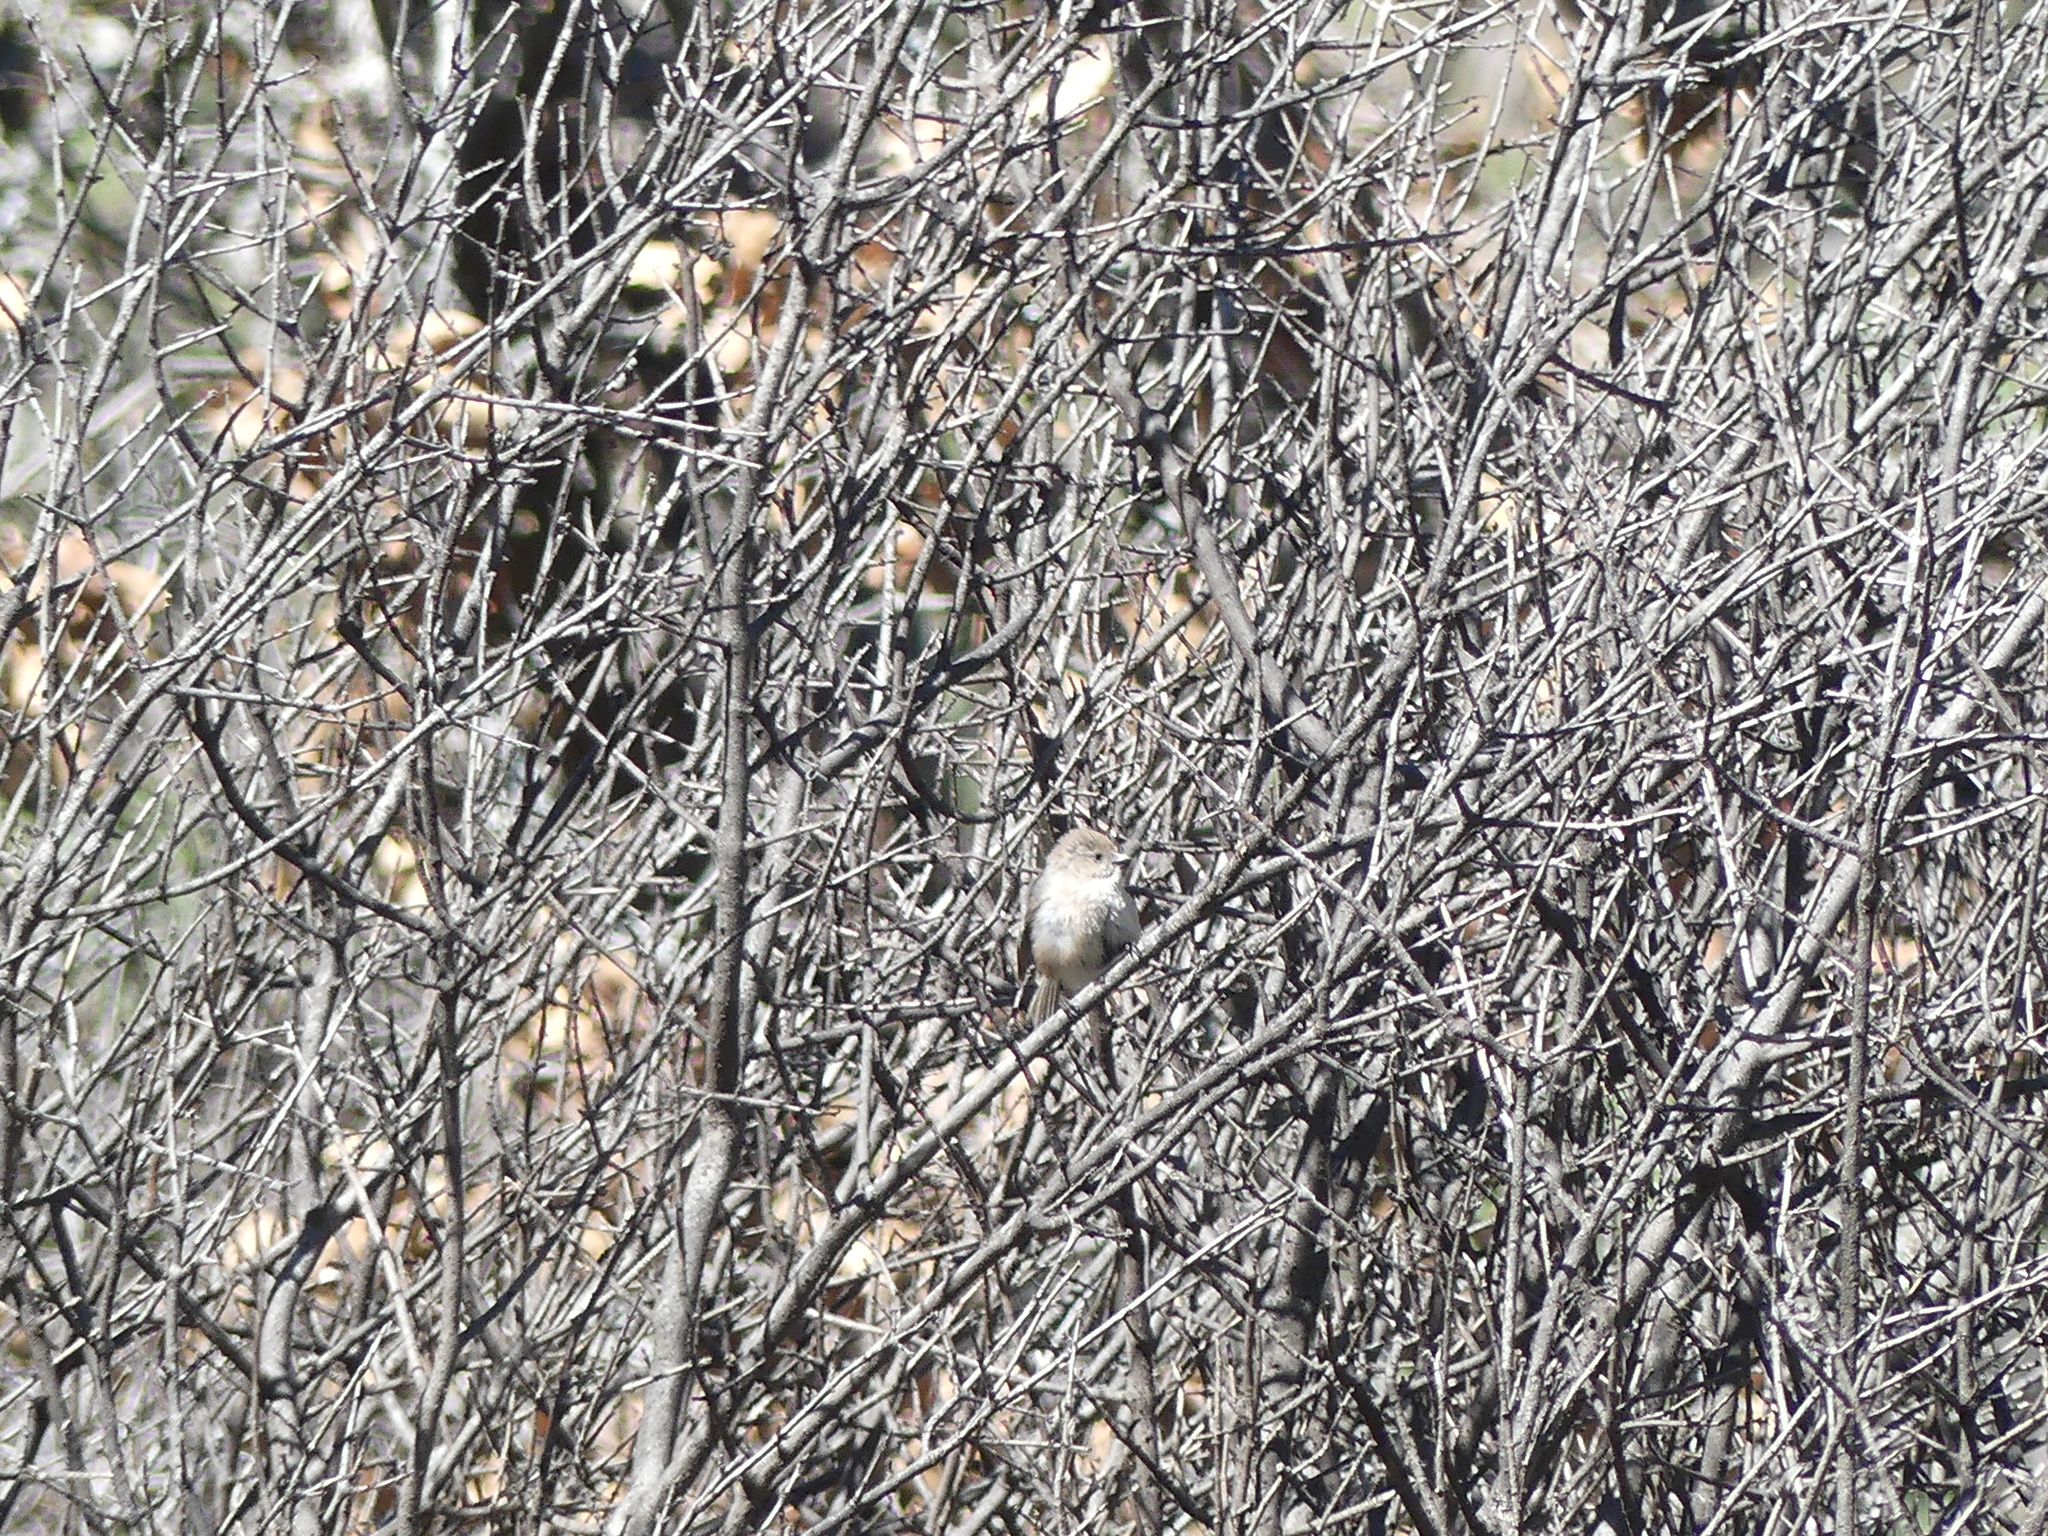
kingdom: Animalia
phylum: Chordata
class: Aves
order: Passeriformes
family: Aegithalidae
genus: Psaltriparus
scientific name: Psaltriparus minimus
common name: American bushtit
